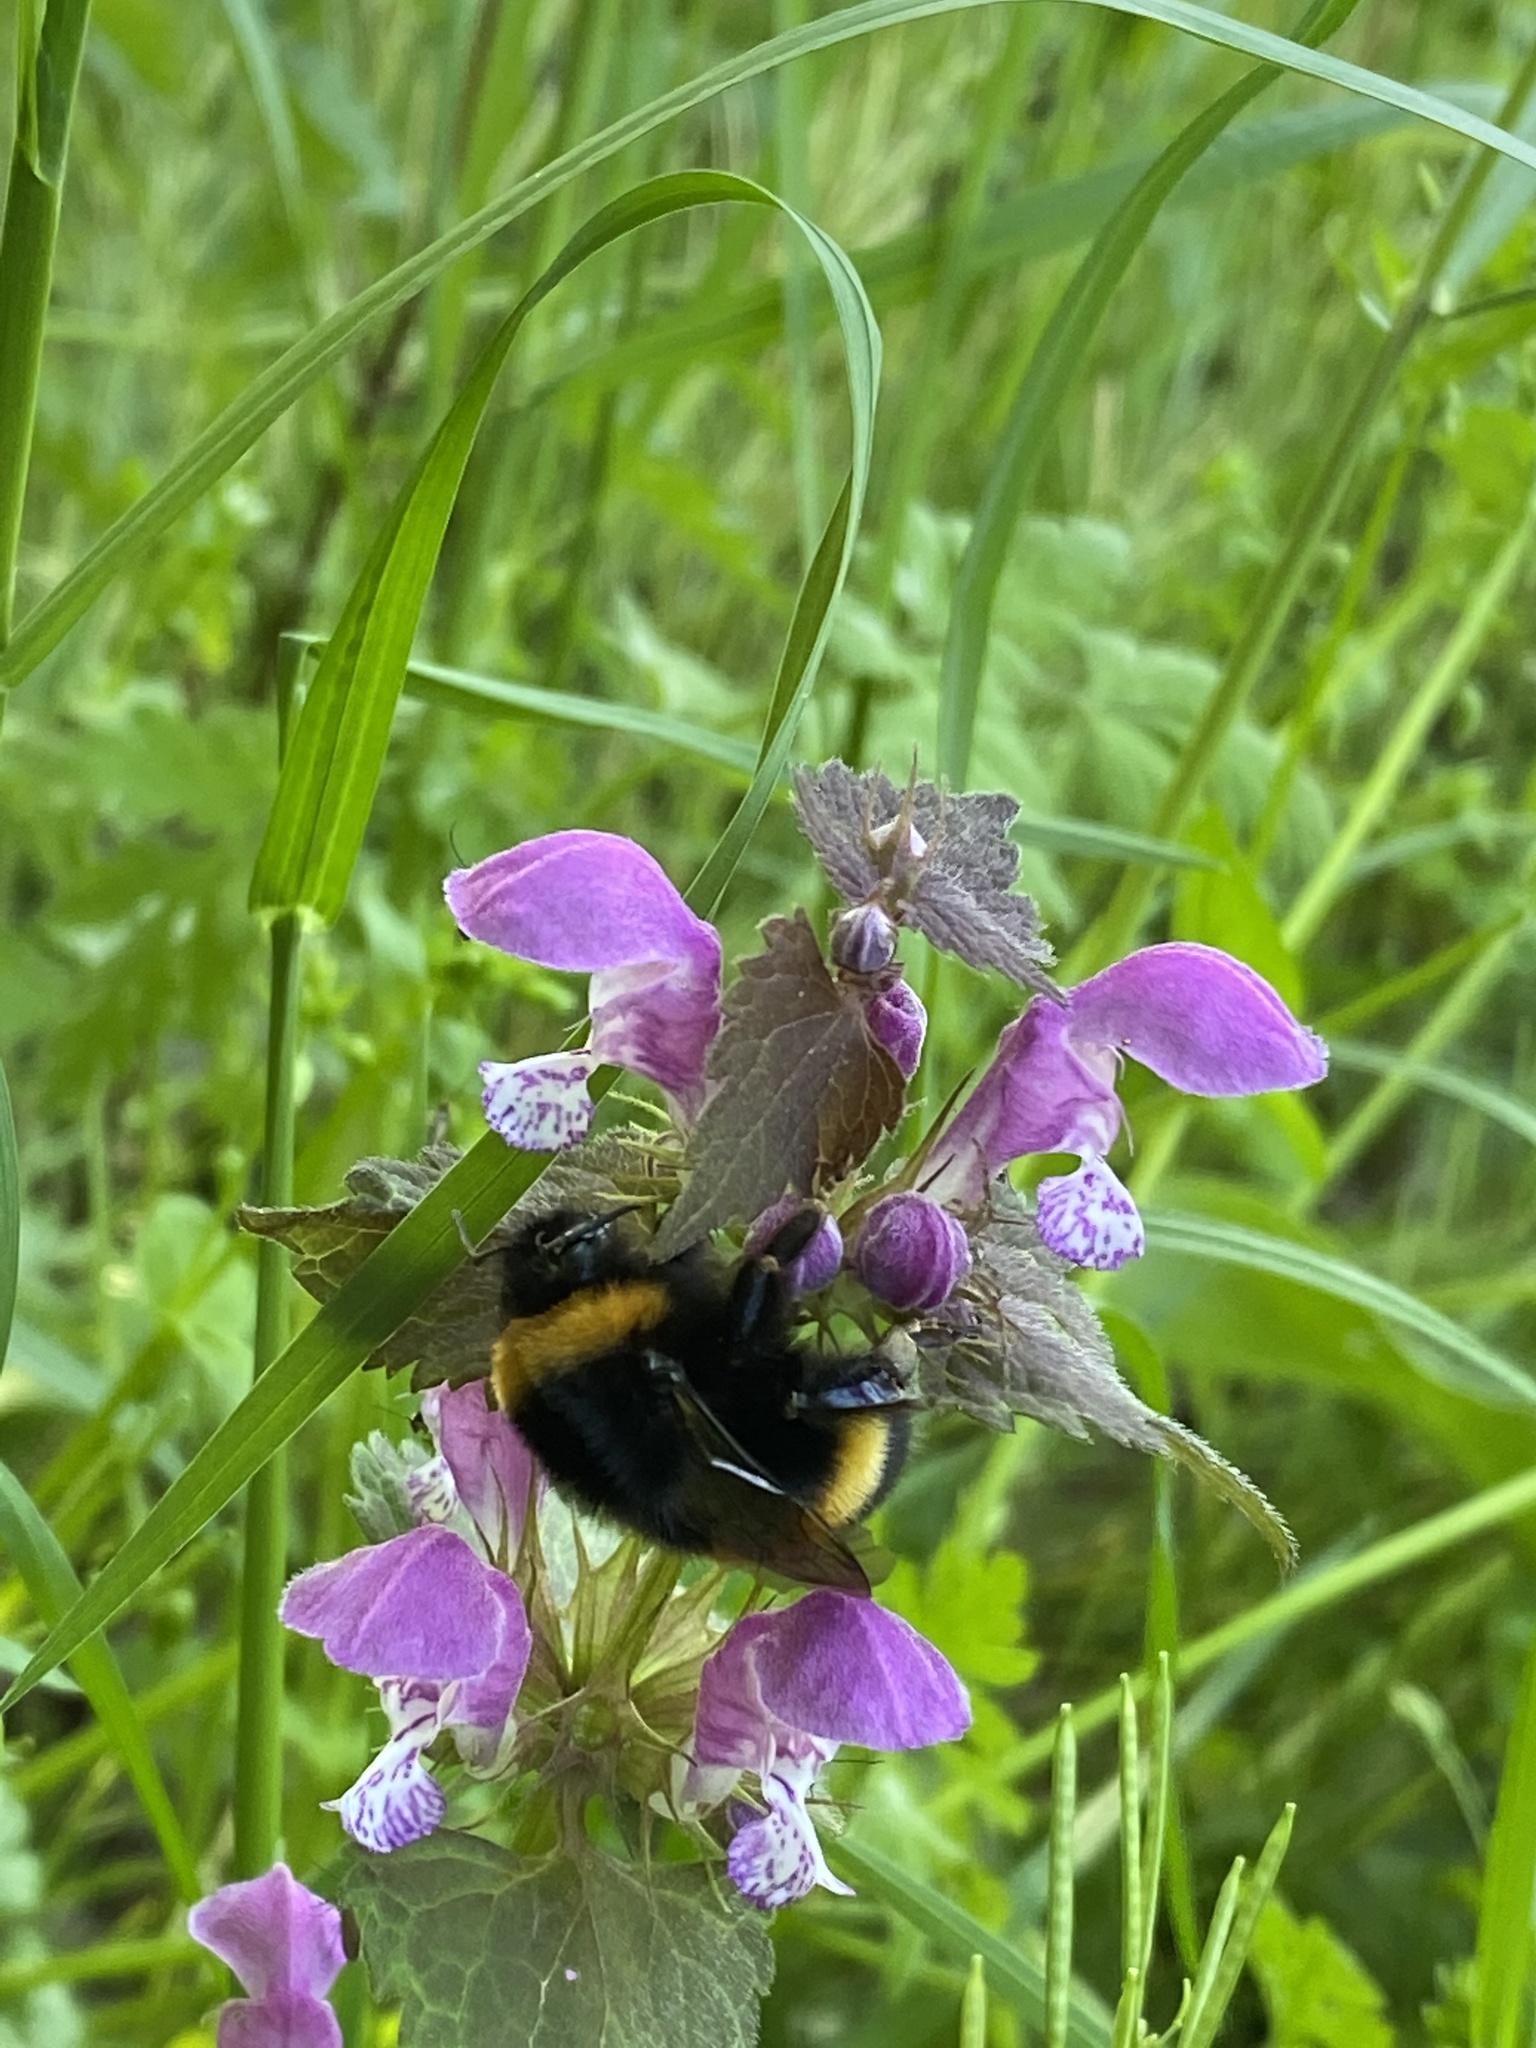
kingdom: Animalia
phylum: Arthropoda
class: Insecta
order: Hymenoptera
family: Apidae
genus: Bombus
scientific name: Bombus terrestris
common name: Buff-tailed bumblebee
